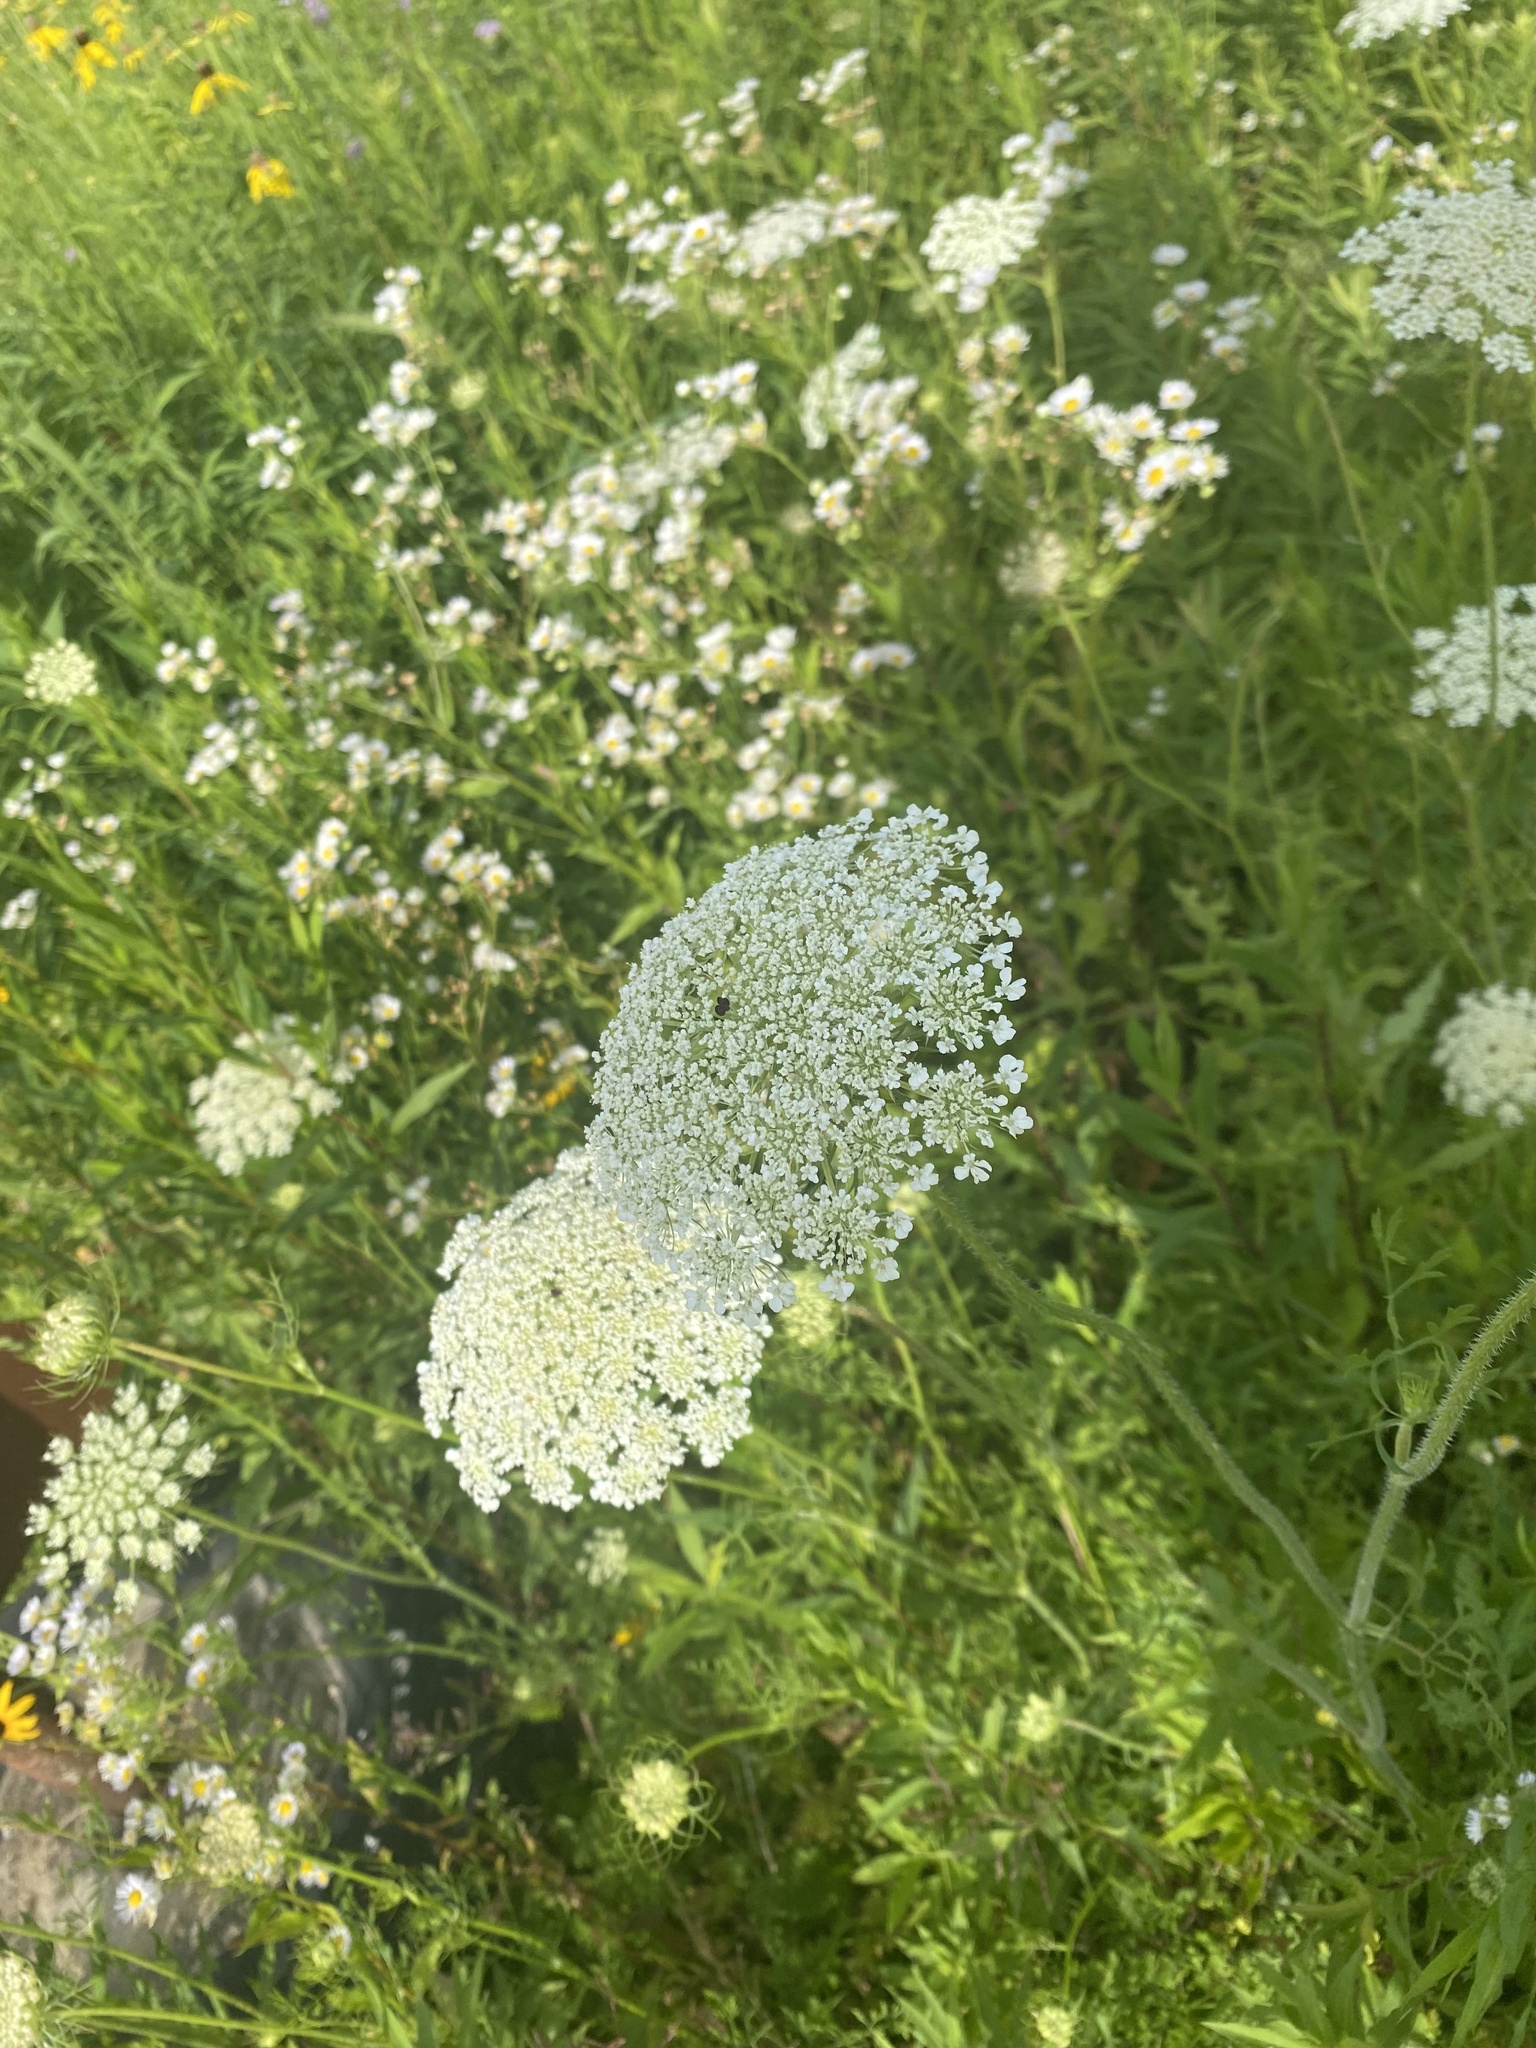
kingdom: Plantae
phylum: Tracheophyta
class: Magnoliopsida
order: Apiales
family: Apiaceae
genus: Daucus
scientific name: Daucus carota
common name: Wild carrot
